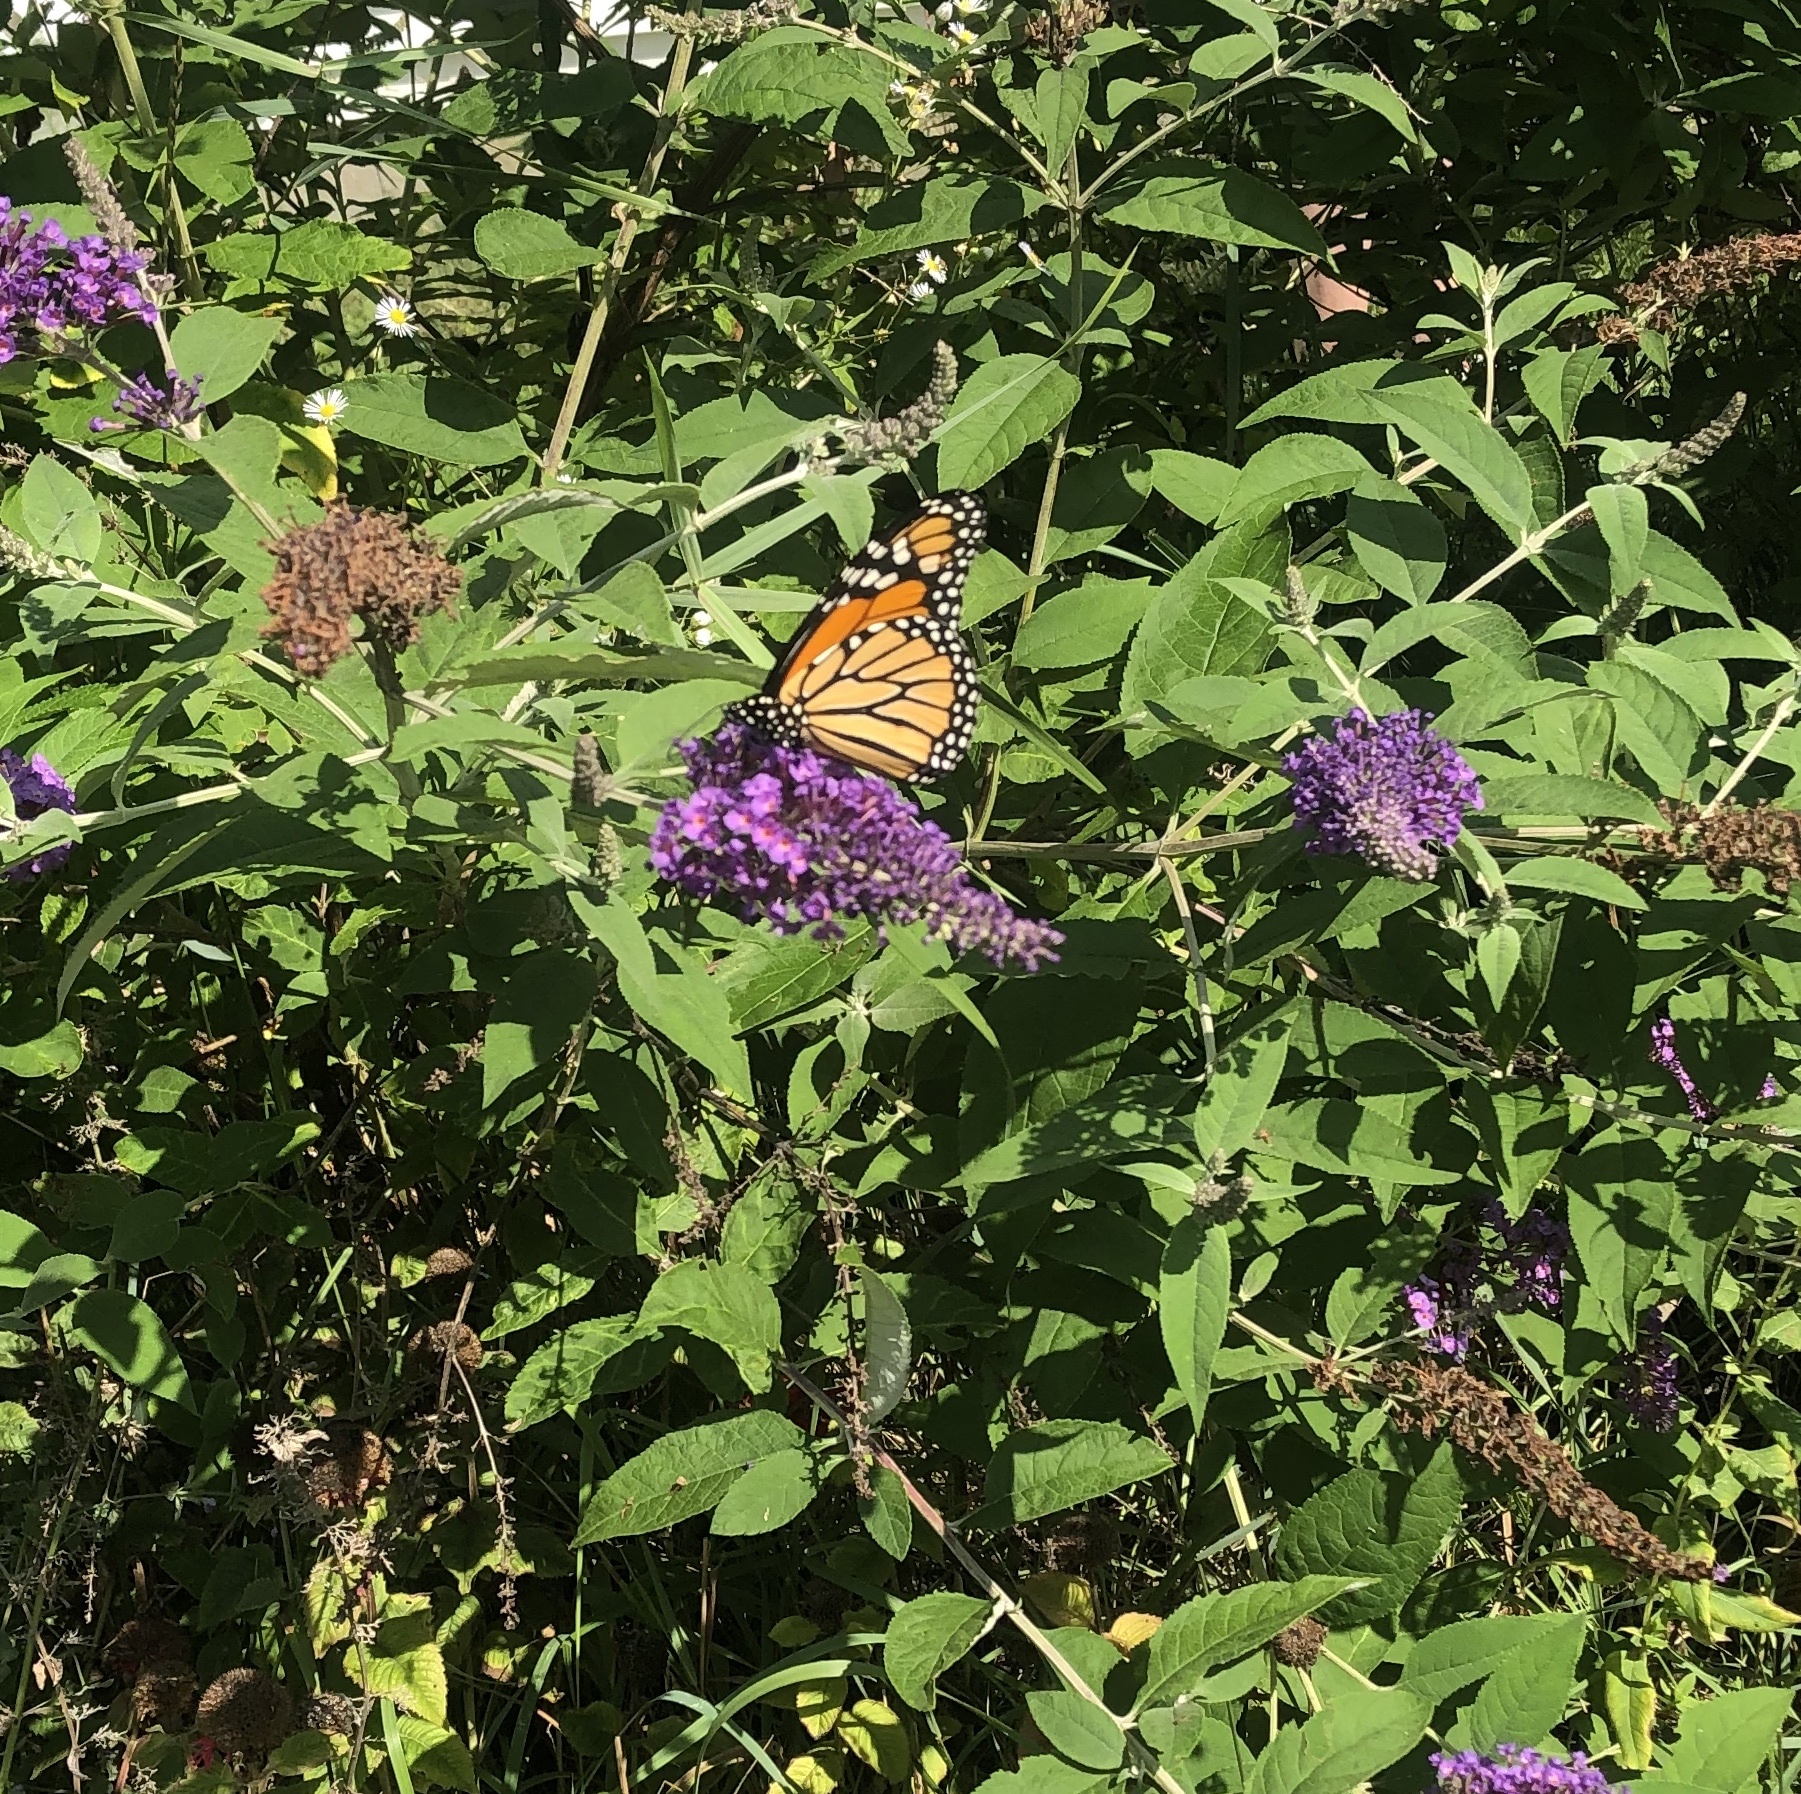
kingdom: Animalia
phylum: Arthropoda
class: Insecta
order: Lepidoptera
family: Nymphalidae
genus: Danaus
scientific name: Danaus plexippus
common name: Monarch
